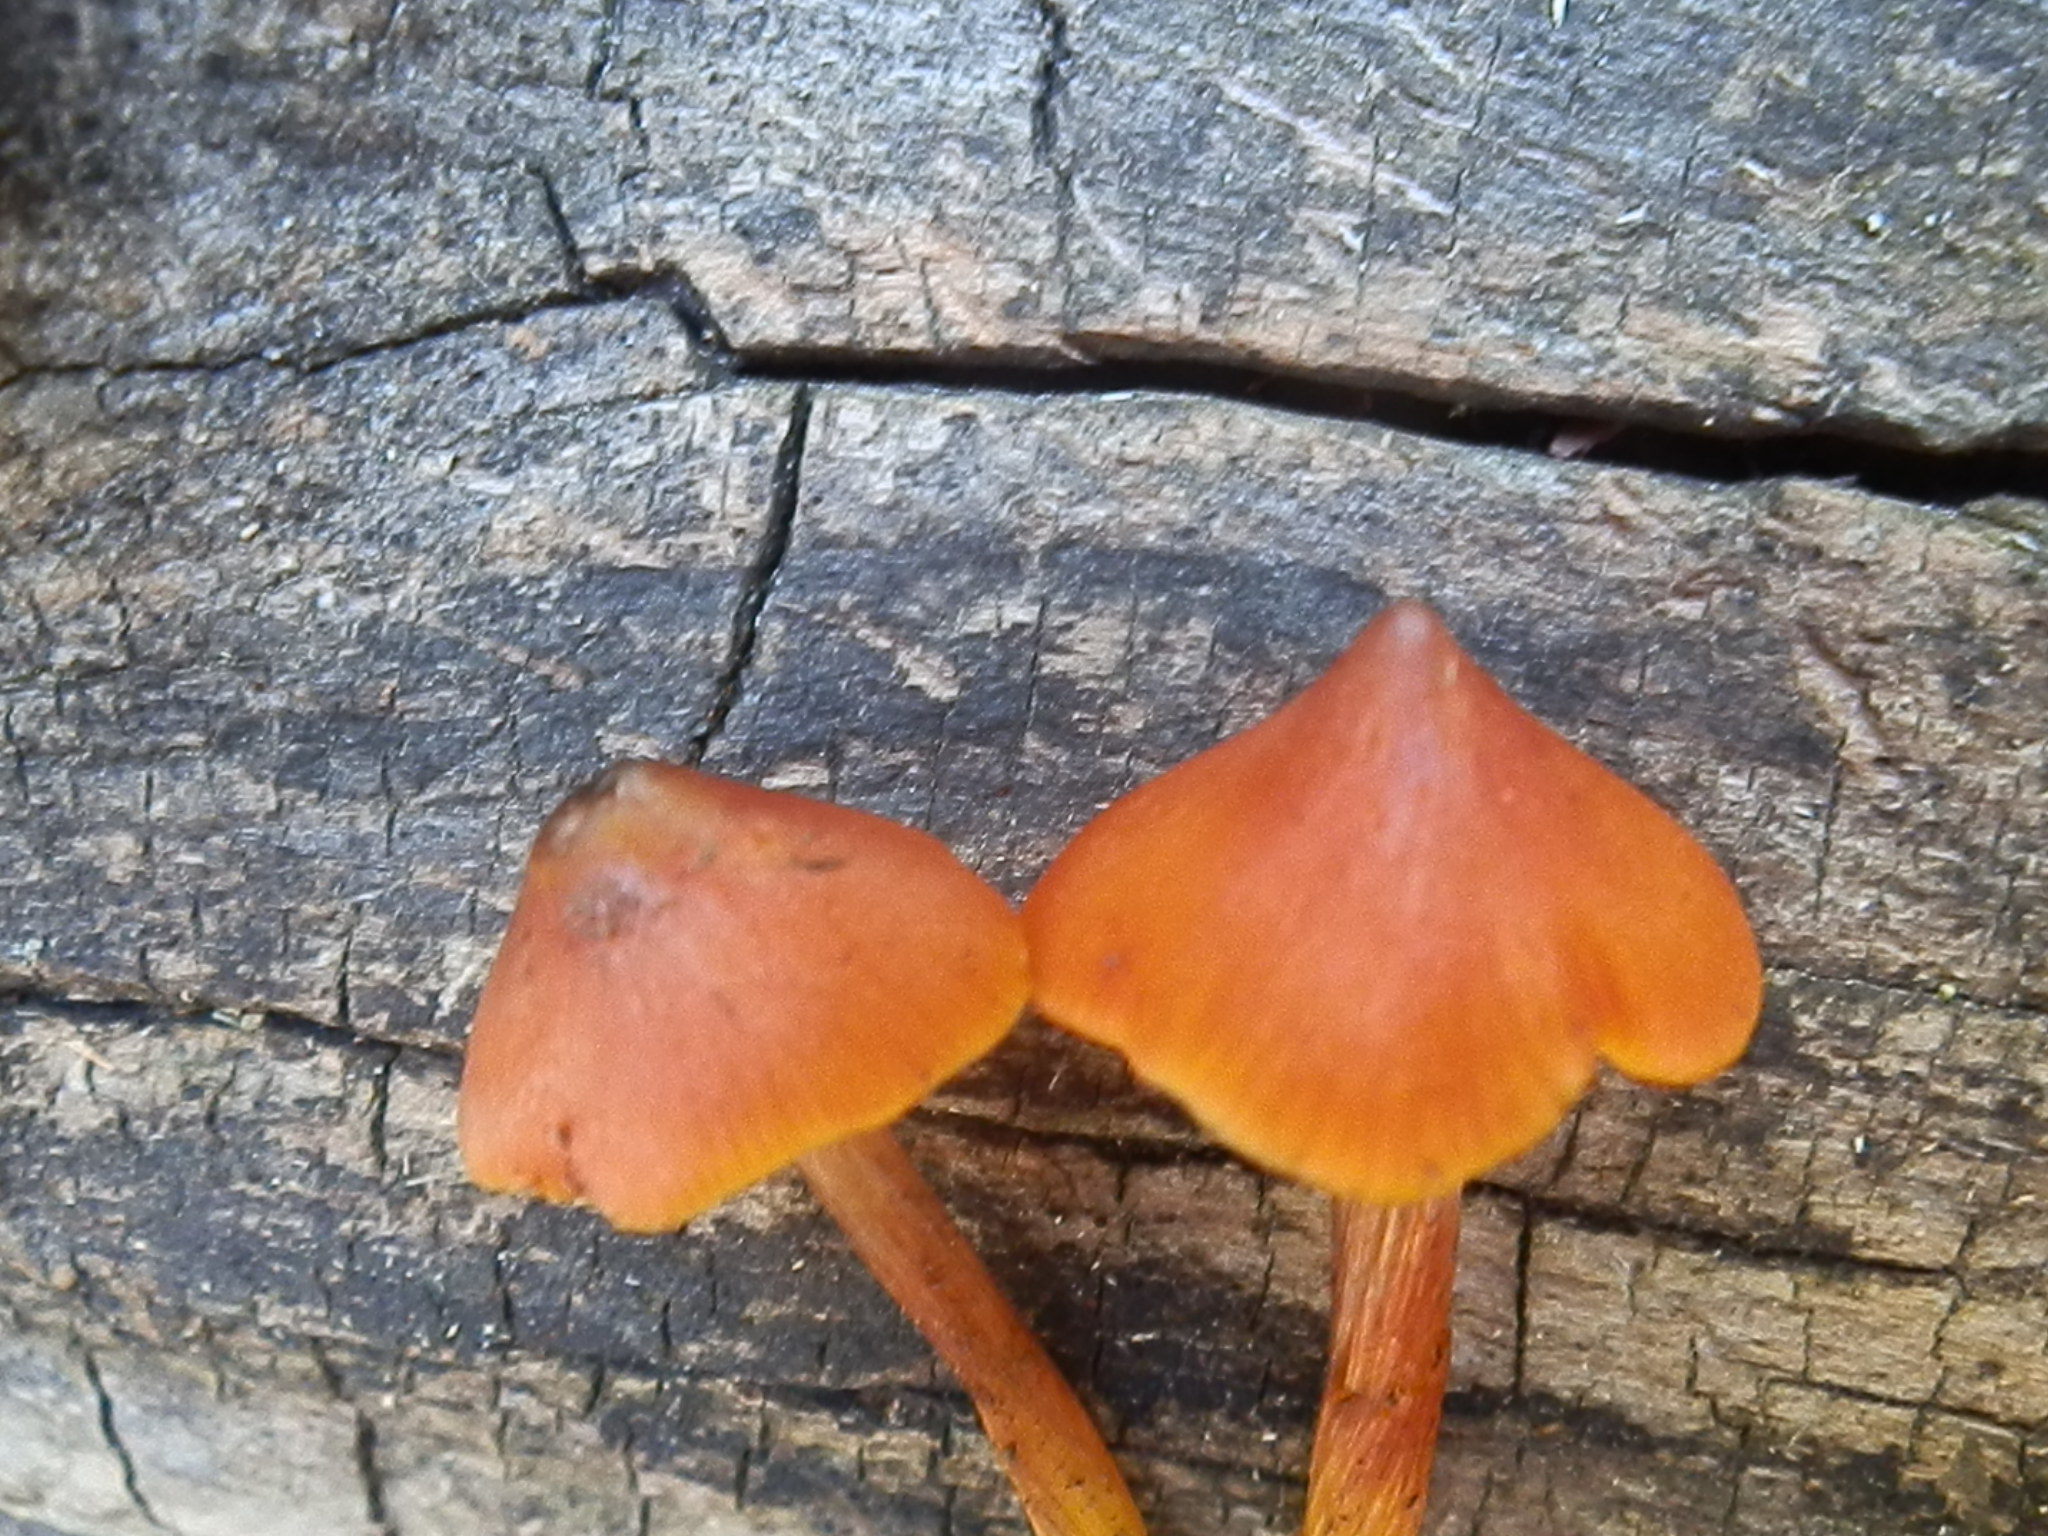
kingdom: Fungi
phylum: Basidiomycota
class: Agaricomycetes
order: Agaricales
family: Hygrophoraceae
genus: Hygrocybe
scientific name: Hygrocybe conica
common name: Blackening wax-cap
